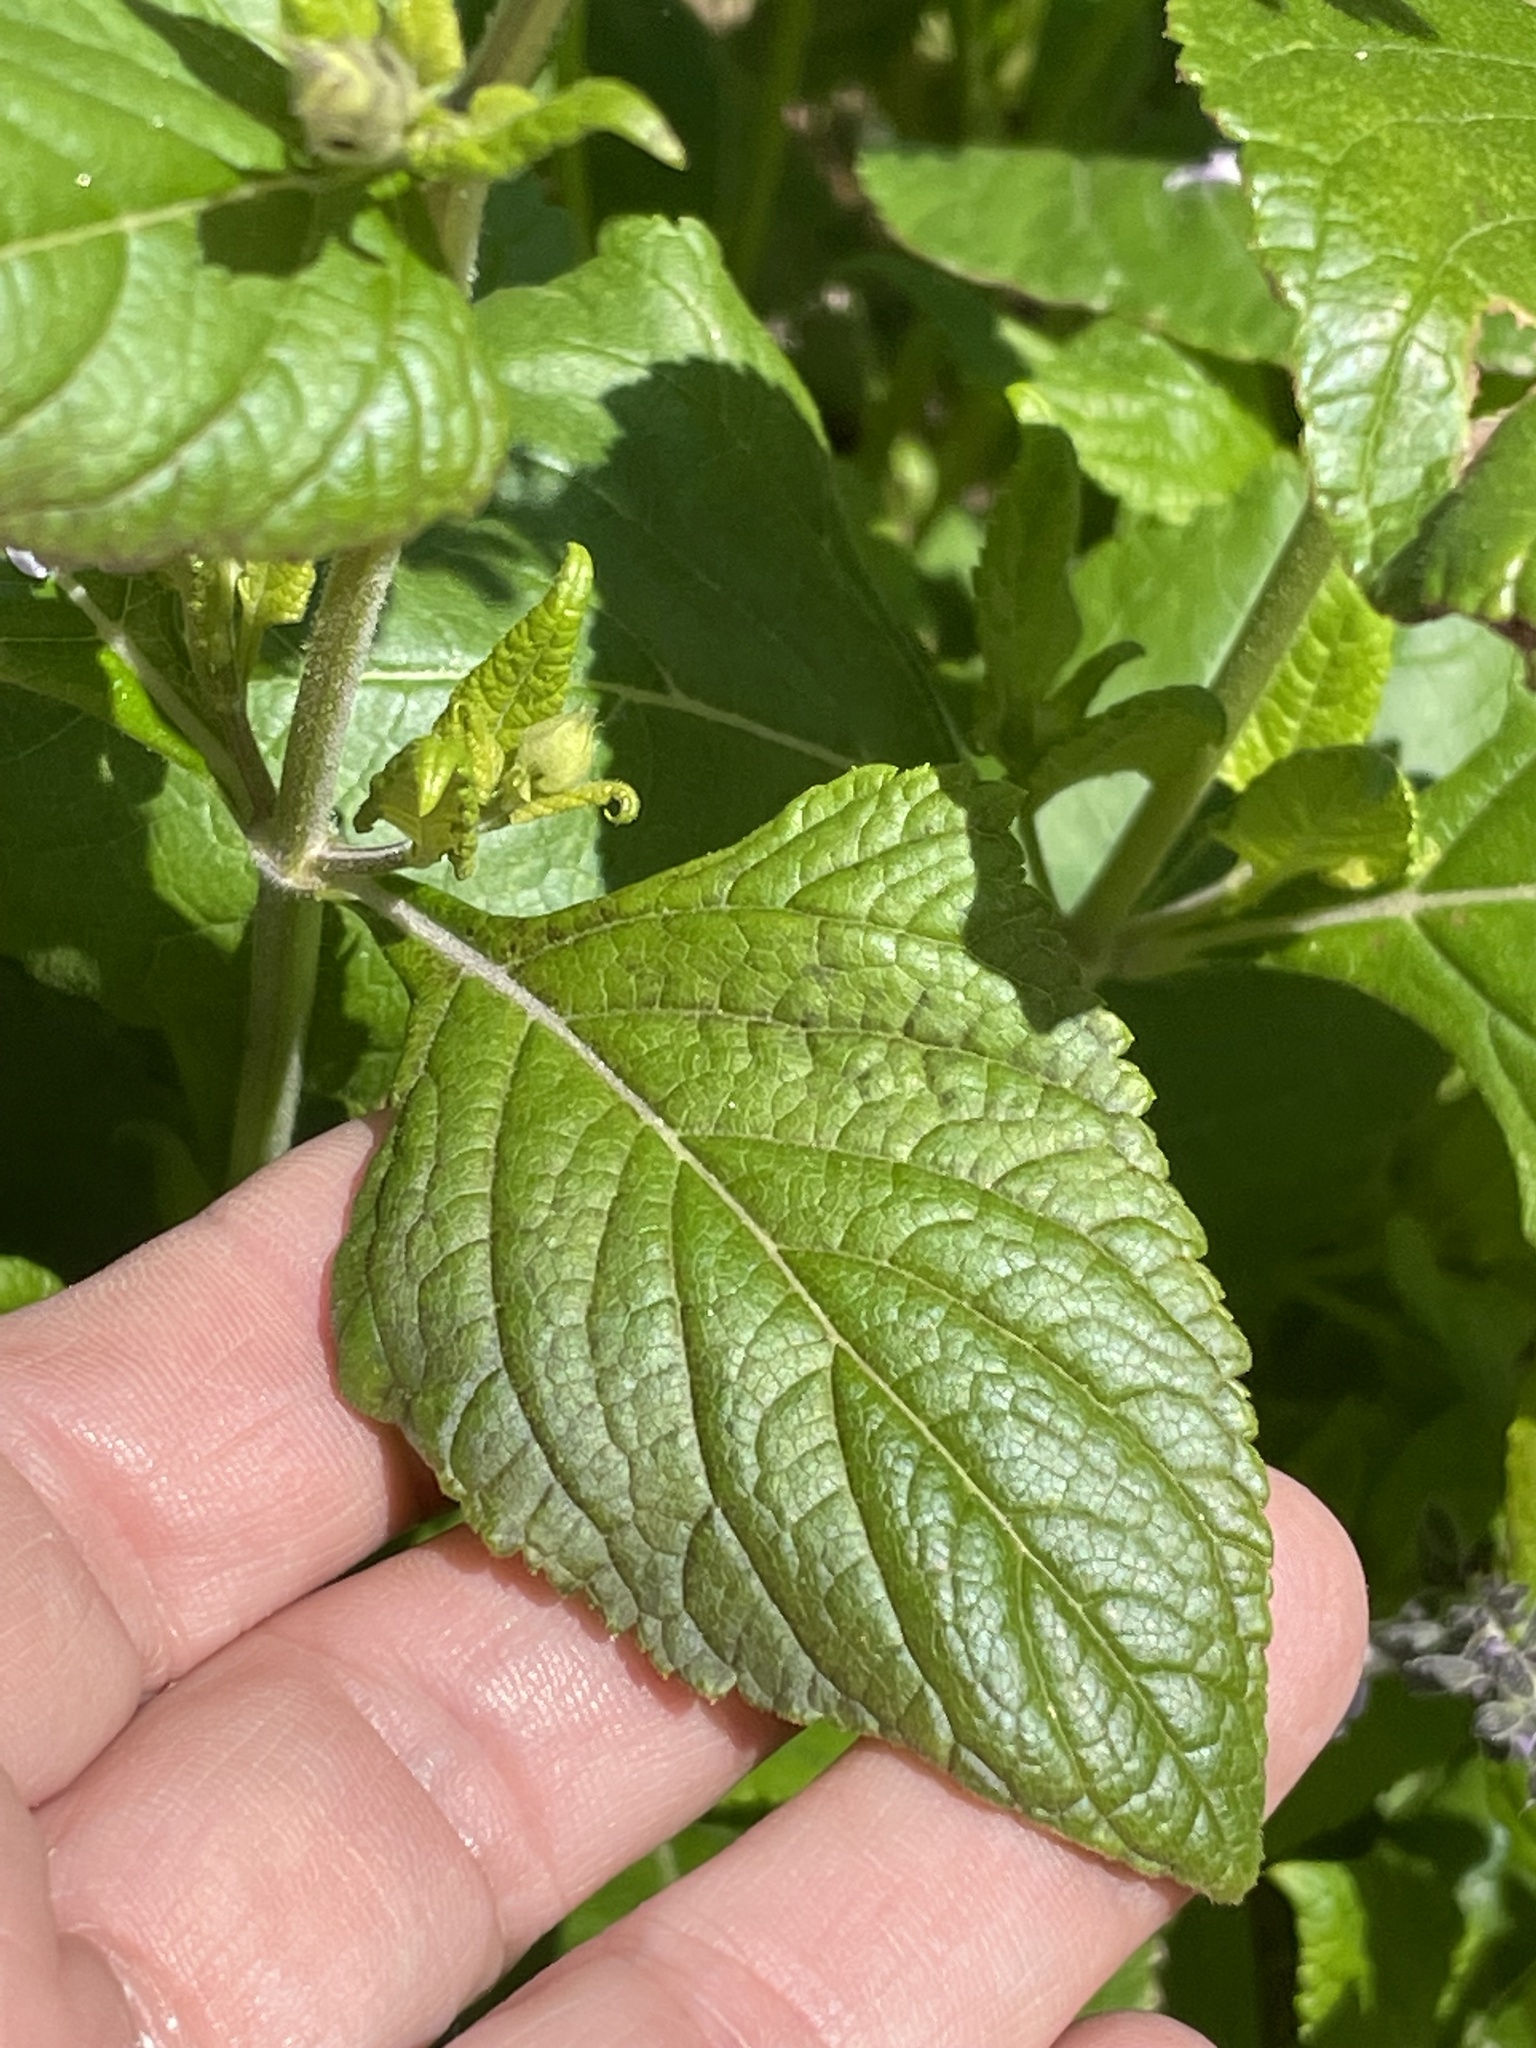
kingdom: Plantae
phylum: Tracheophyta
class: Magnoliopsida
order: Lamiales
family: Lamiaceae
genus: Salvia
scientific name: Salvia urticifolia
